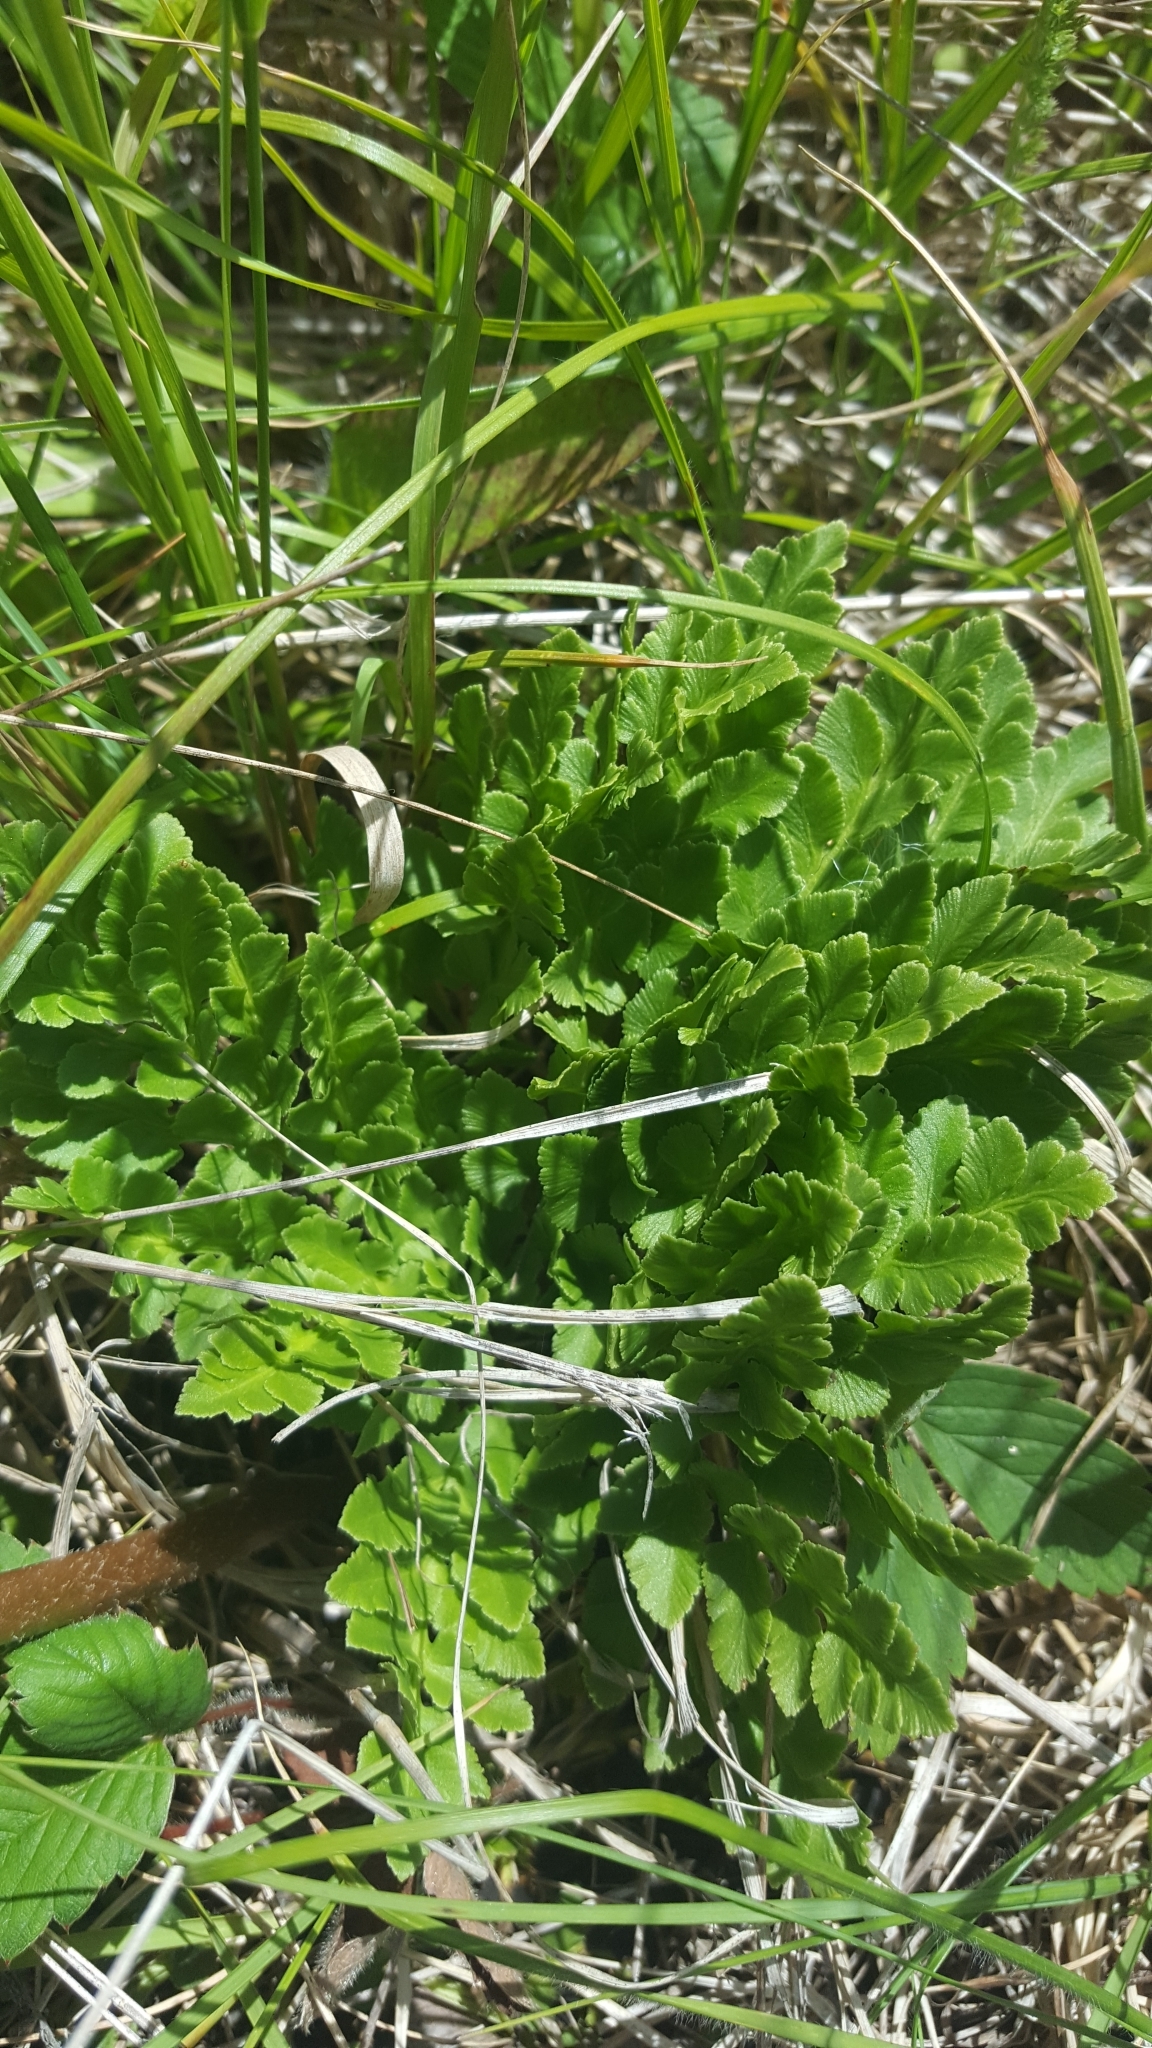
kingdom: Plantae
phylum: Tracheophyta
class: Polypodiopsida
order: Ophioglossales
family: Ophioglossaceae
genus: Sceptridium
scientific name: Sceptridium multifidum
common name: Leathery grape fern
